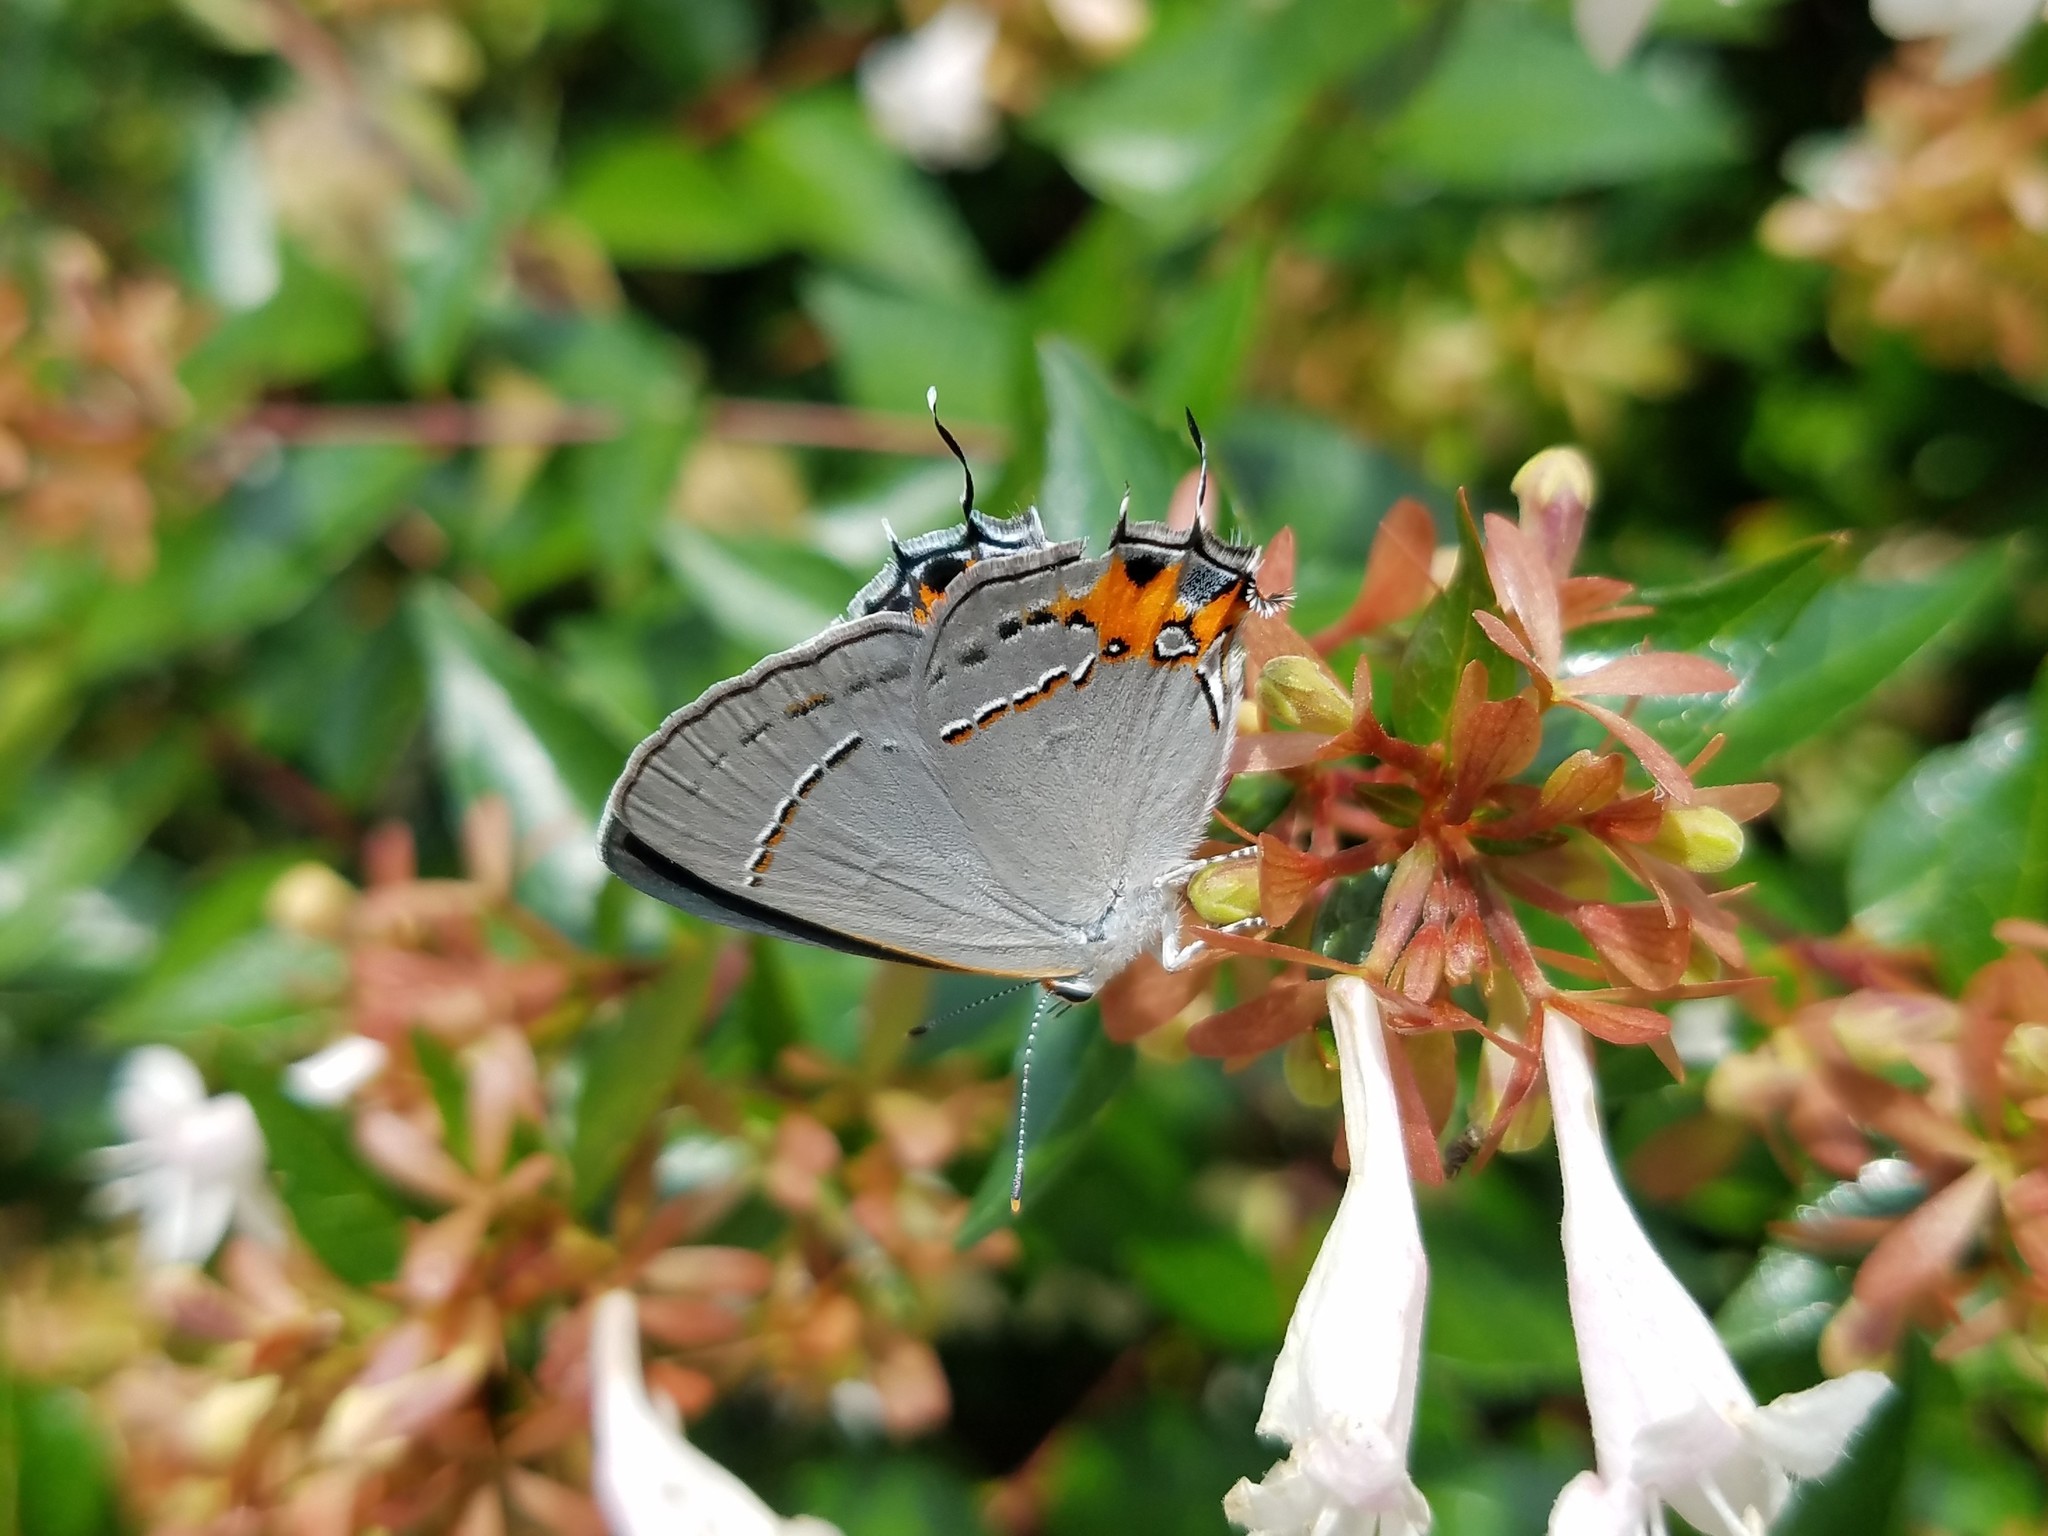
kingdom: Animalia
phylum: Arthropoda
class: Insecta
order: Lepidoptera
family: Lycaenidae
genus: Strymon
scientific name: Strymon melinus
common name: Gray hairstreak
